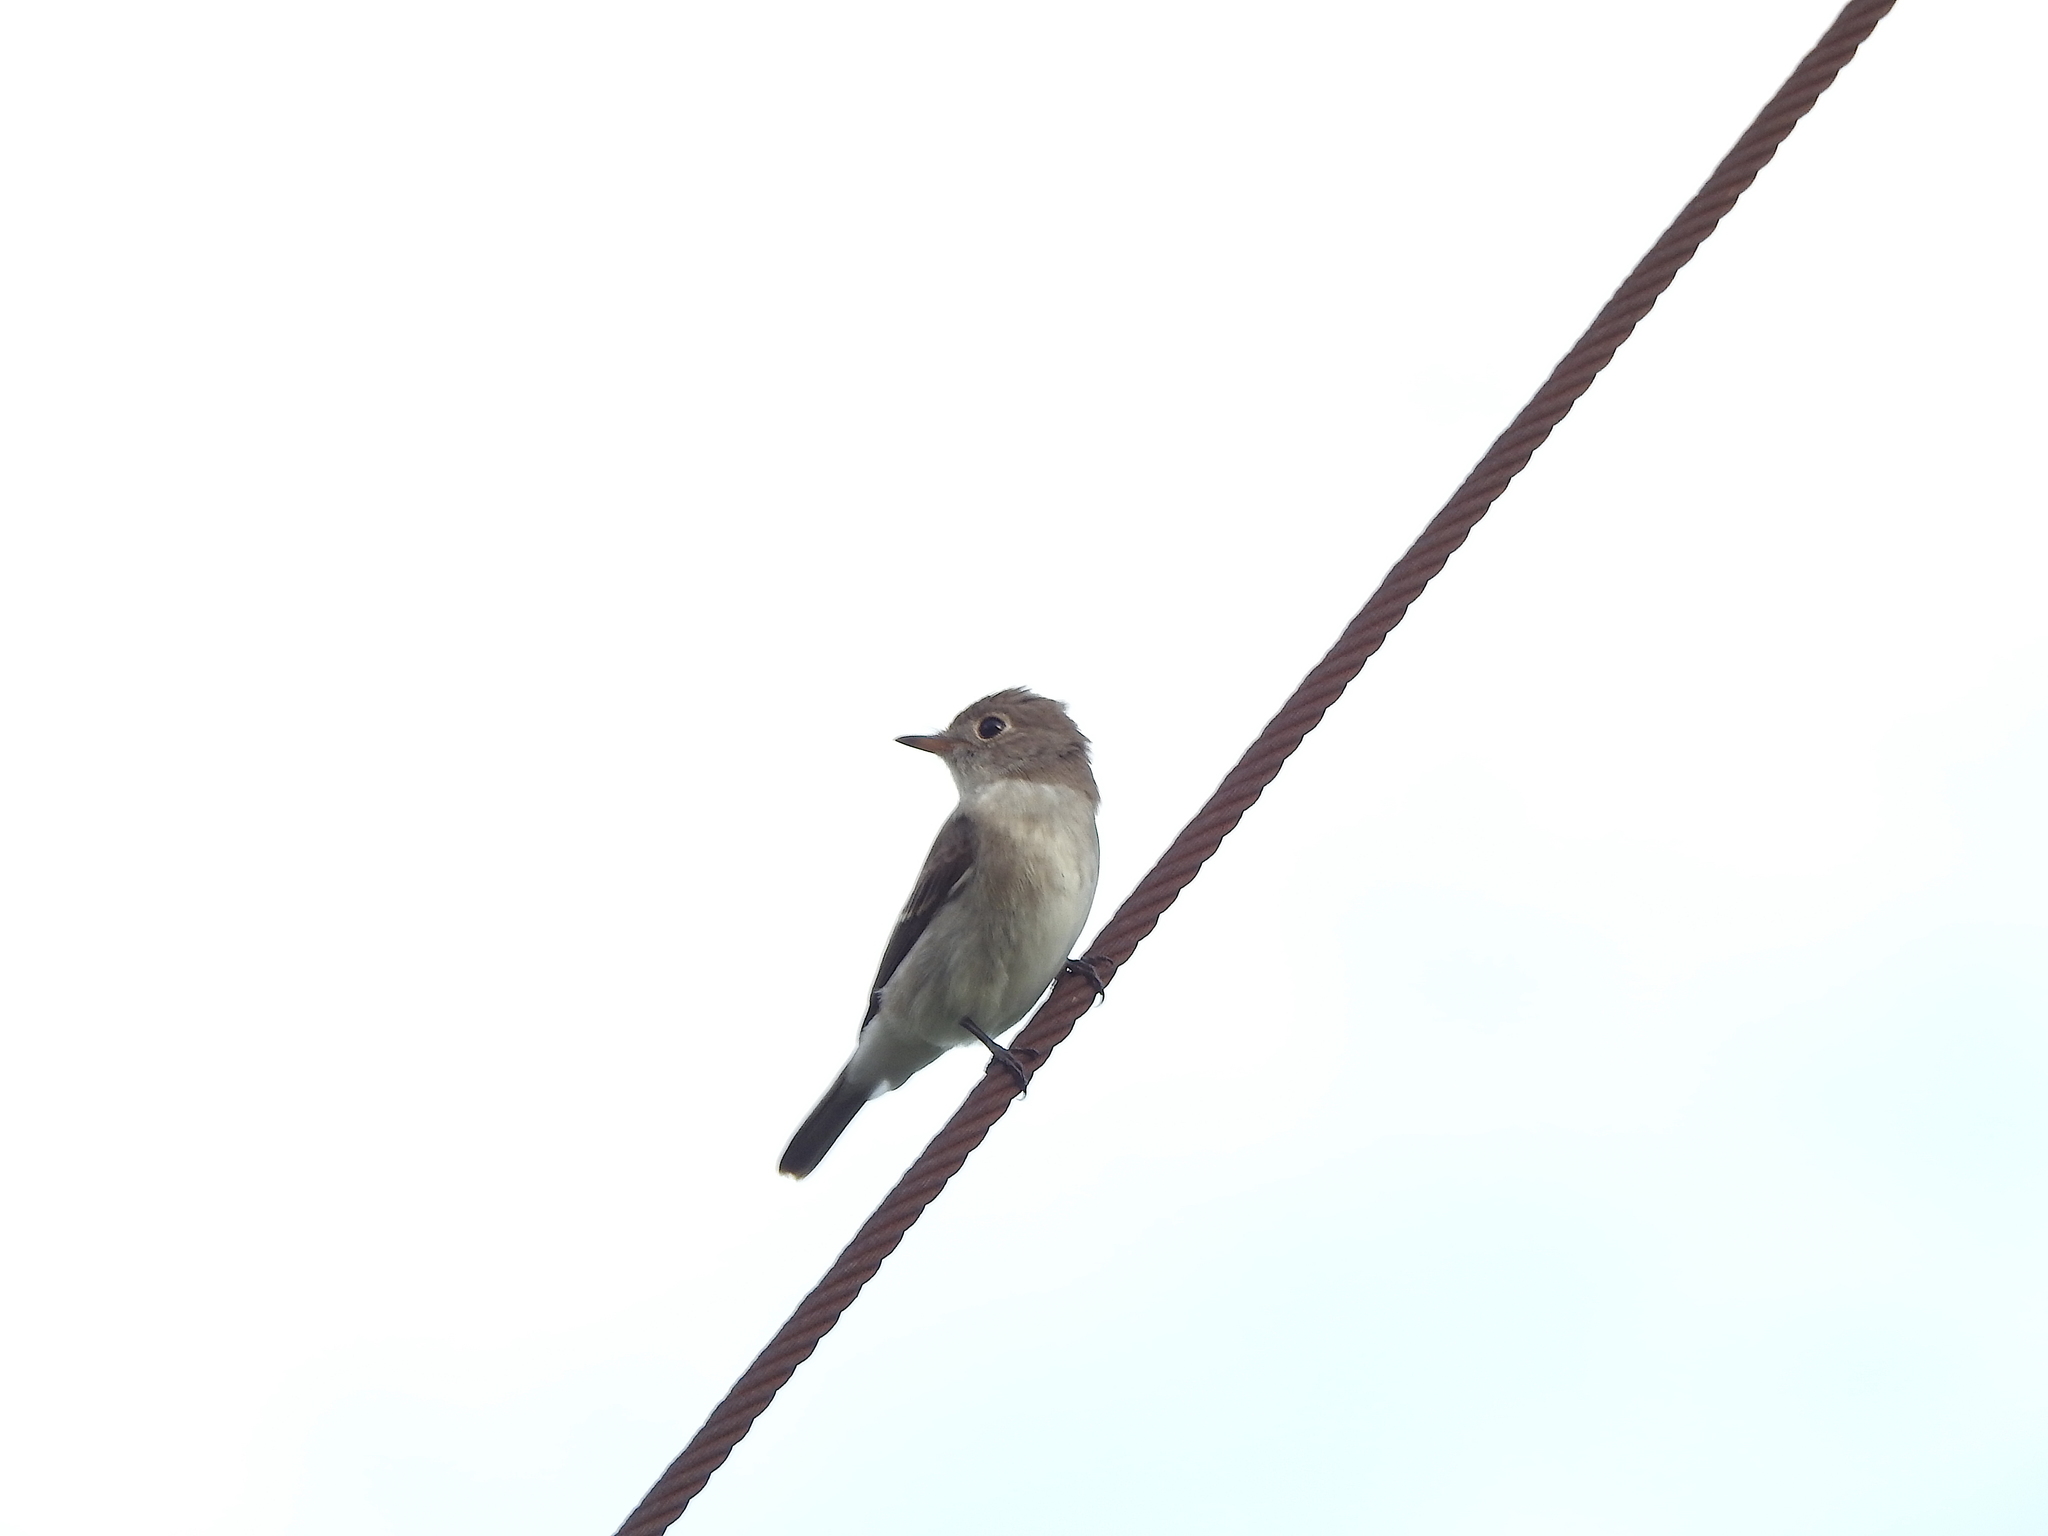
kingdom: Animalia
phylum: Chordata
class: Aves
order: Passeriformes
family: Muscicapidae
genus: Muscicapa
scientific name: Muscicapa latirostris
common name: Asian brown flycatcher
